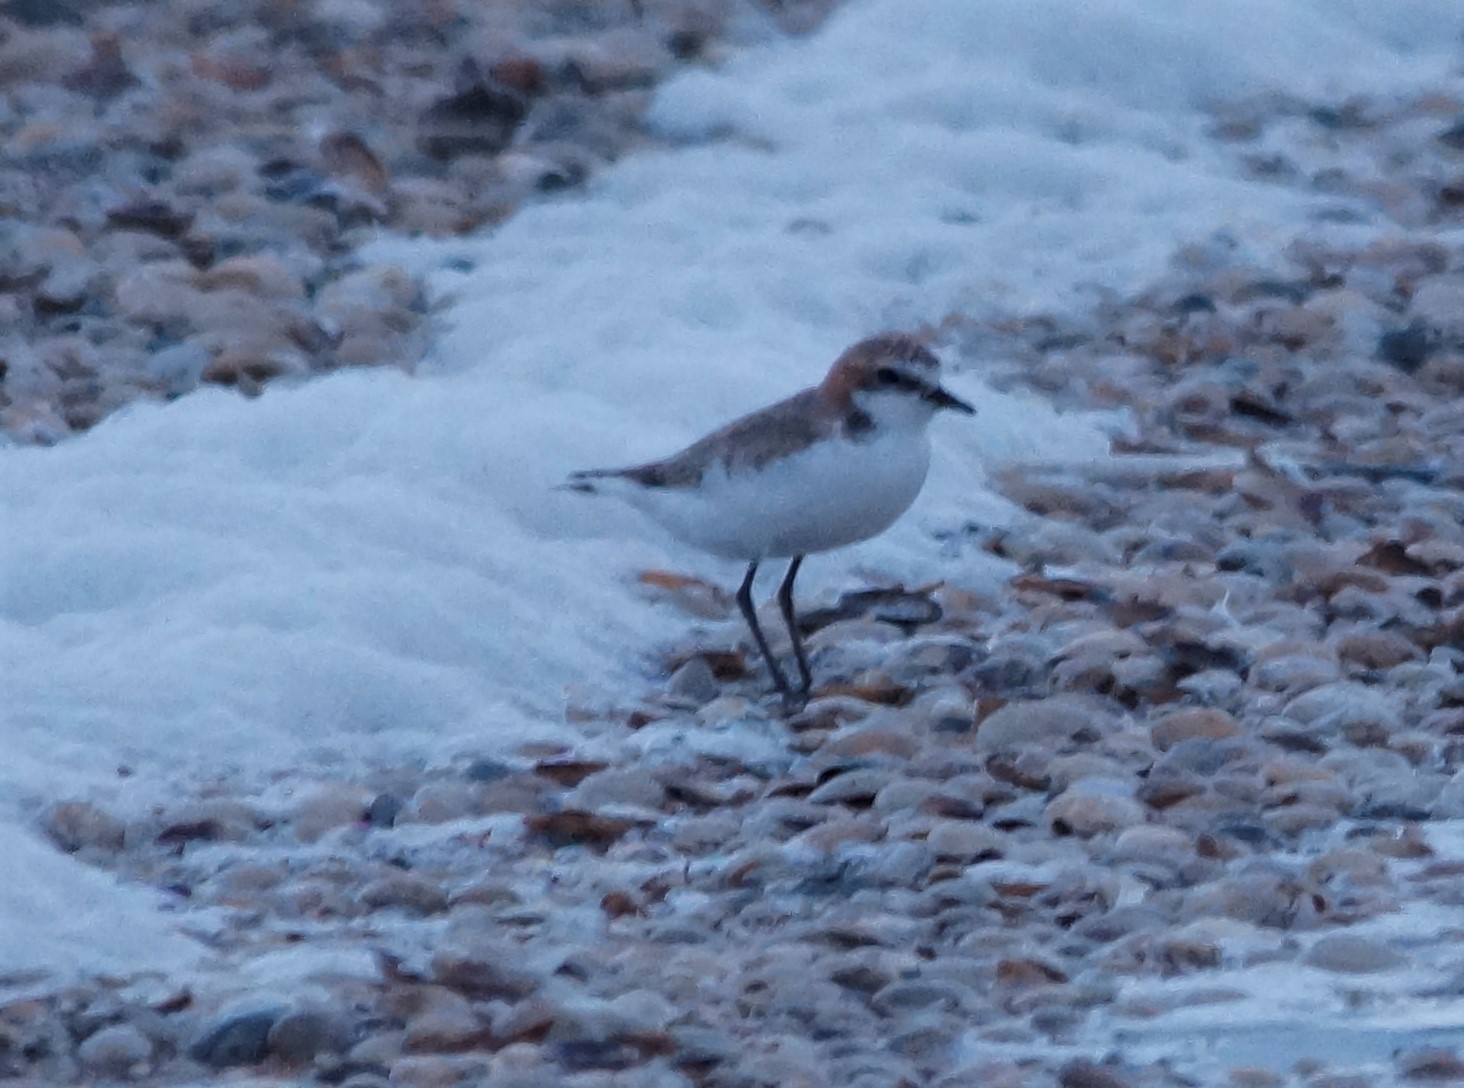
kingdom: Animalia
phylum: Chordata
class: Aves
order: Charadriiformes
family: Charadriidae
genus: Anarhynchus
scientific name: Anarhynchus
